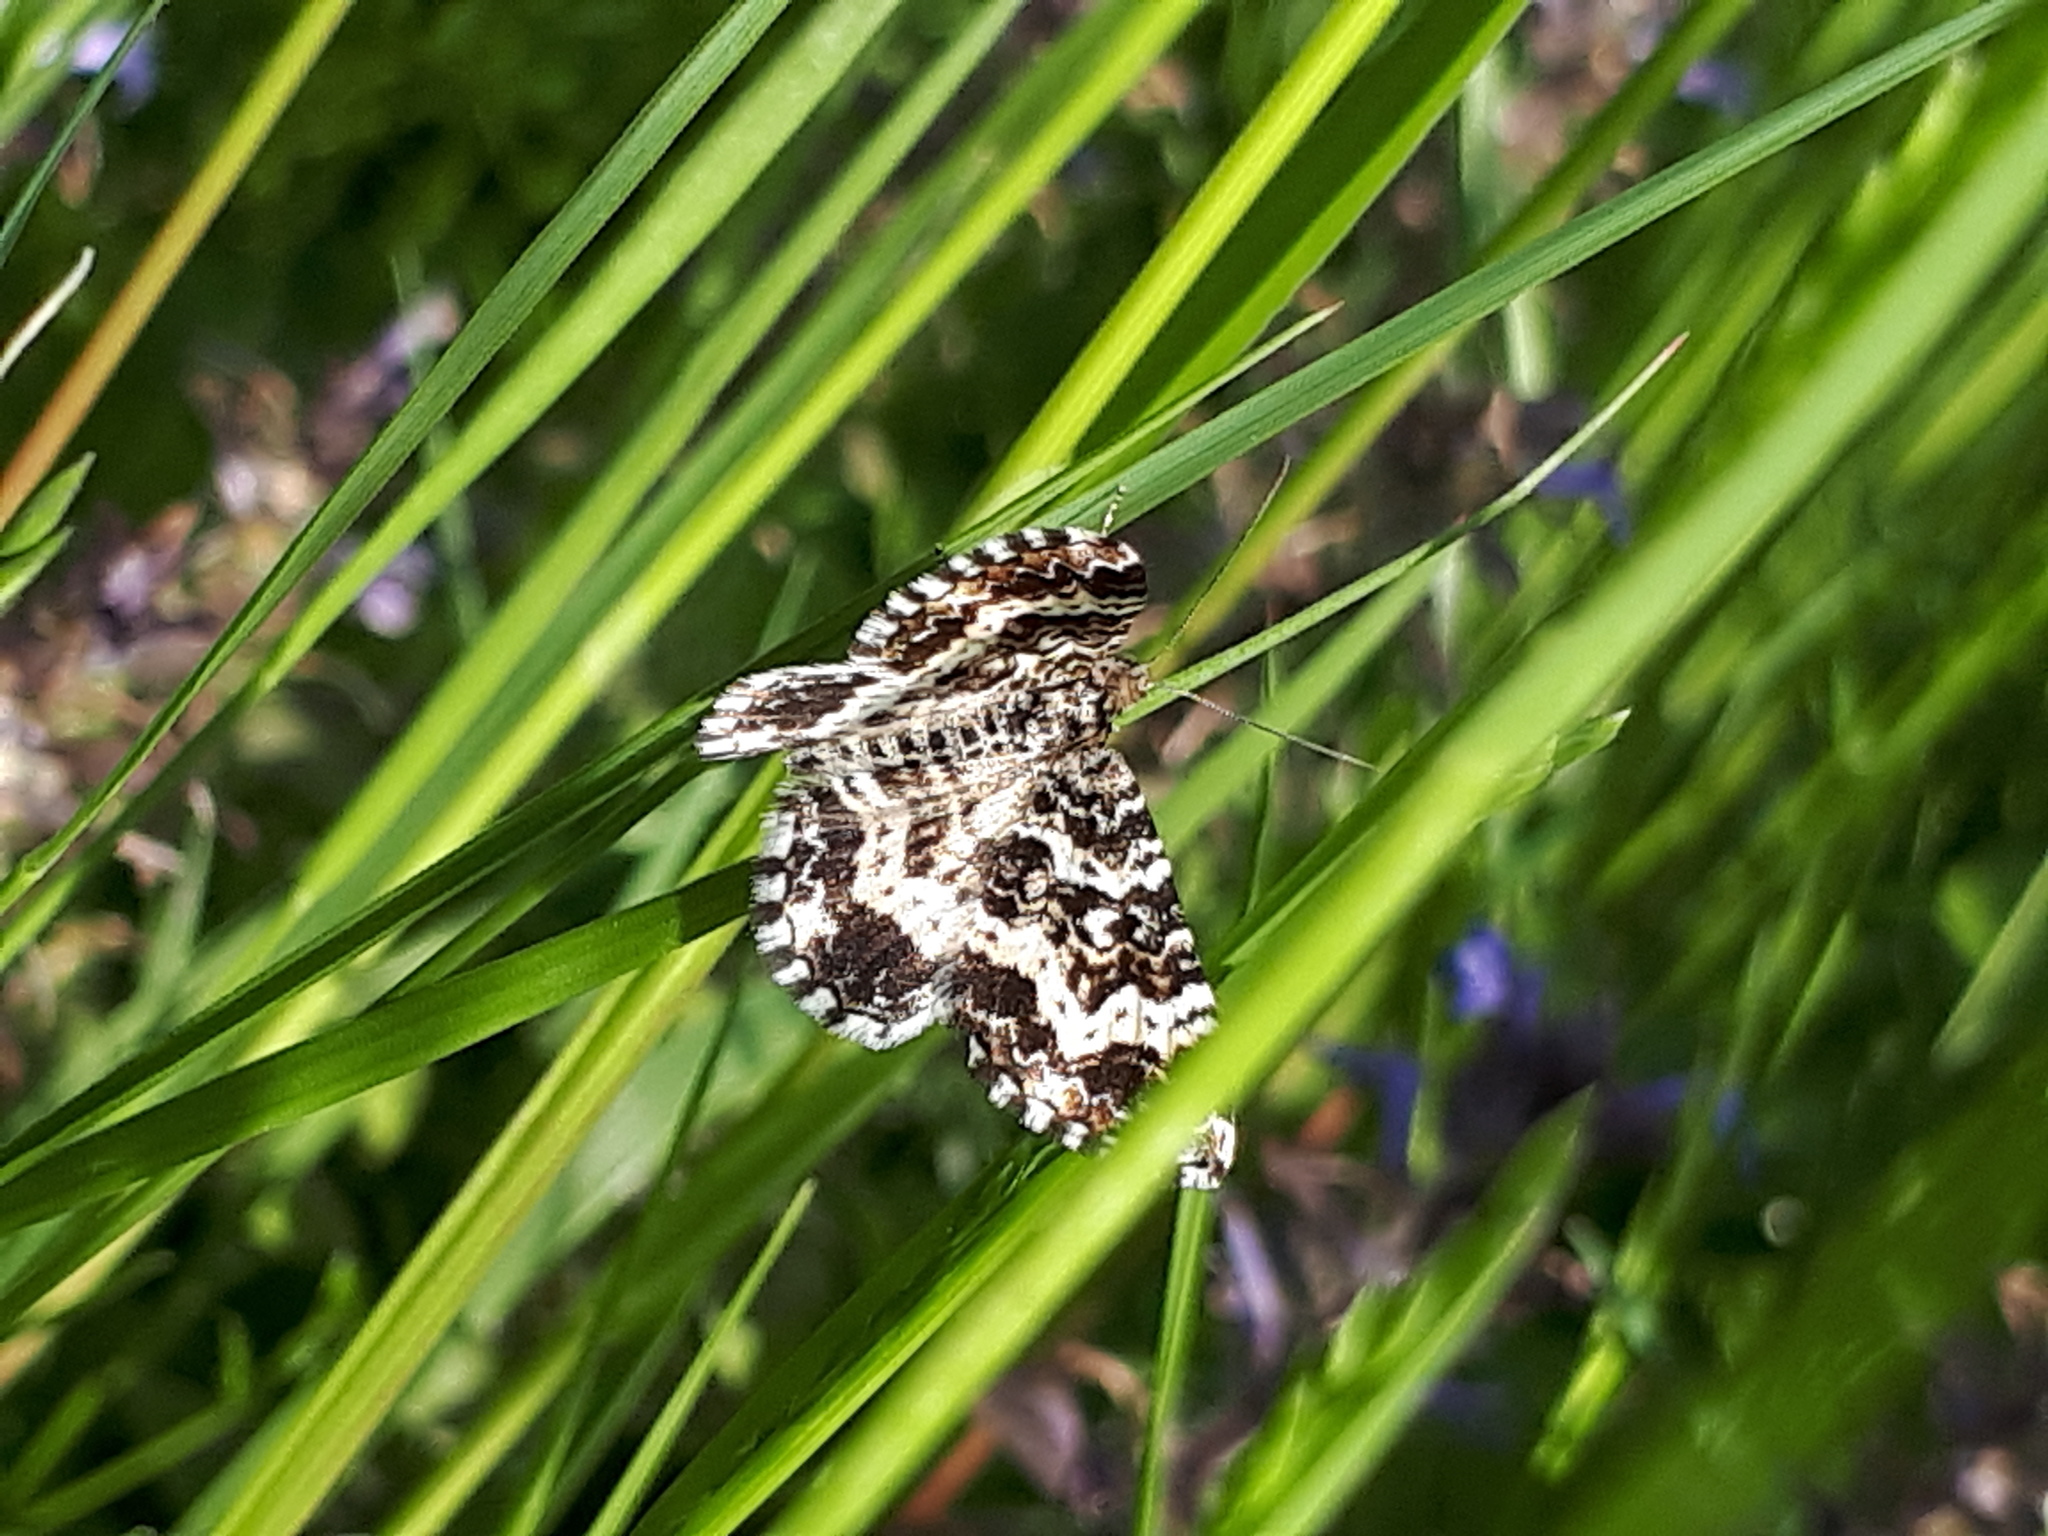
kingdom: Animalia
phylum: Arthropoda
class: Insecta
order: Lepidoptera
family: Geometridae
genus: Epirrhoe
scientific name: Epirrhoe tristata
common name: Small argent & sable
